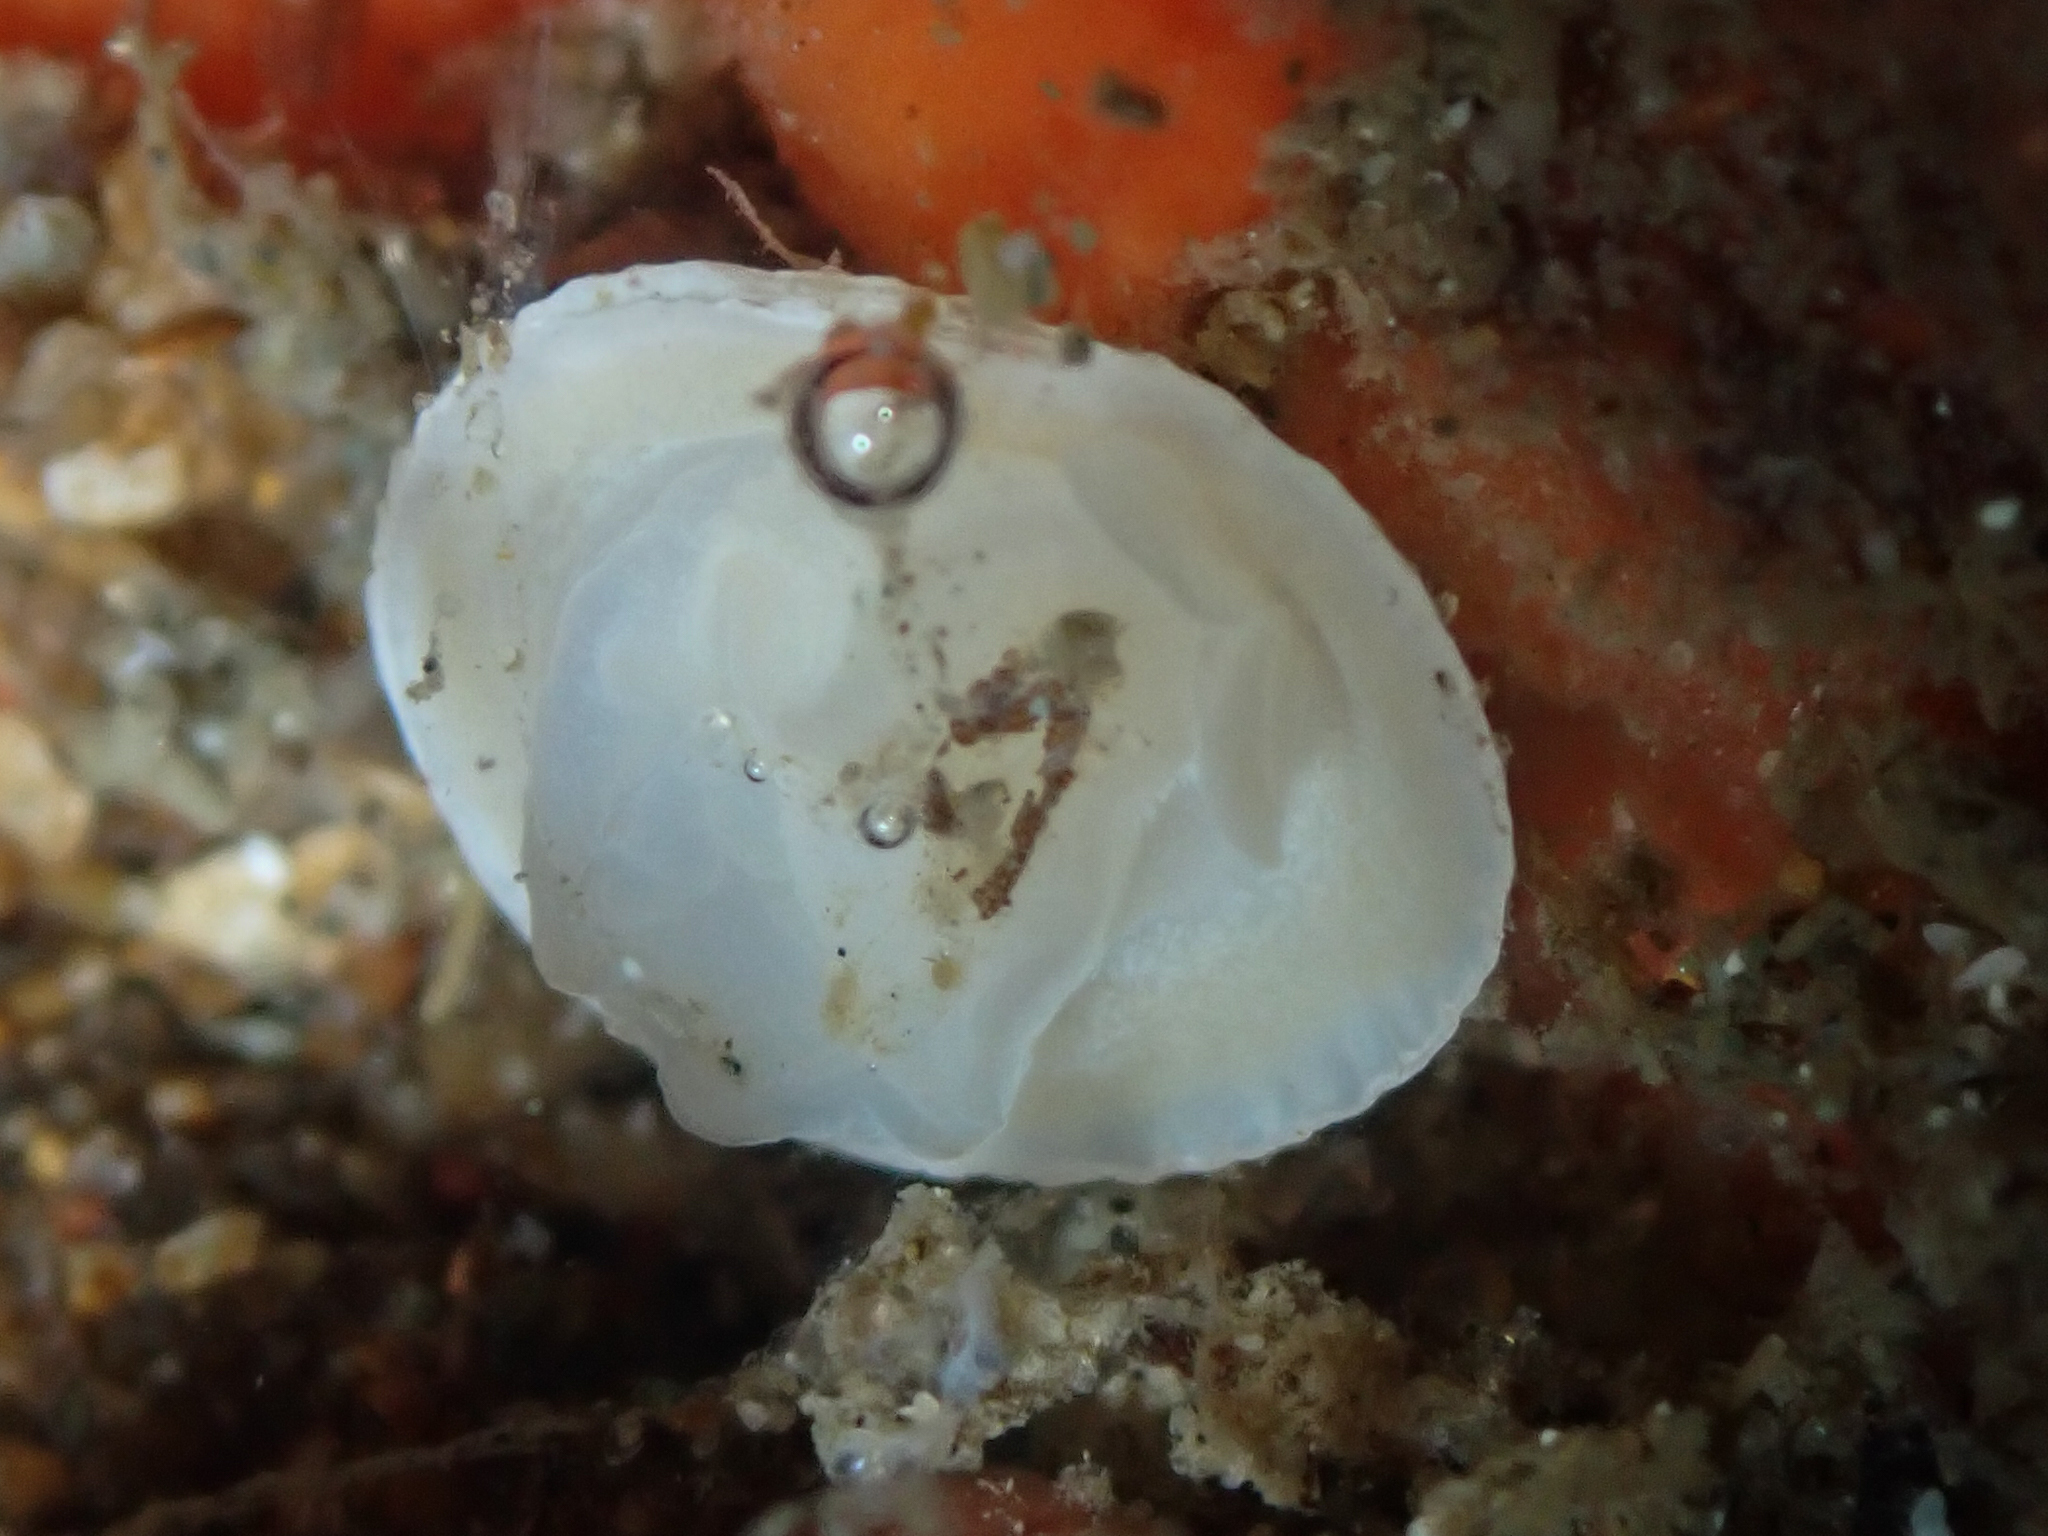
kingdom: Animalia
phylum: Mollusca
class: Gastropoda
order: Ellobiida
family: Trimusculidae
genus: Trimusculus
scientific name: Trimusculus reticulatus
